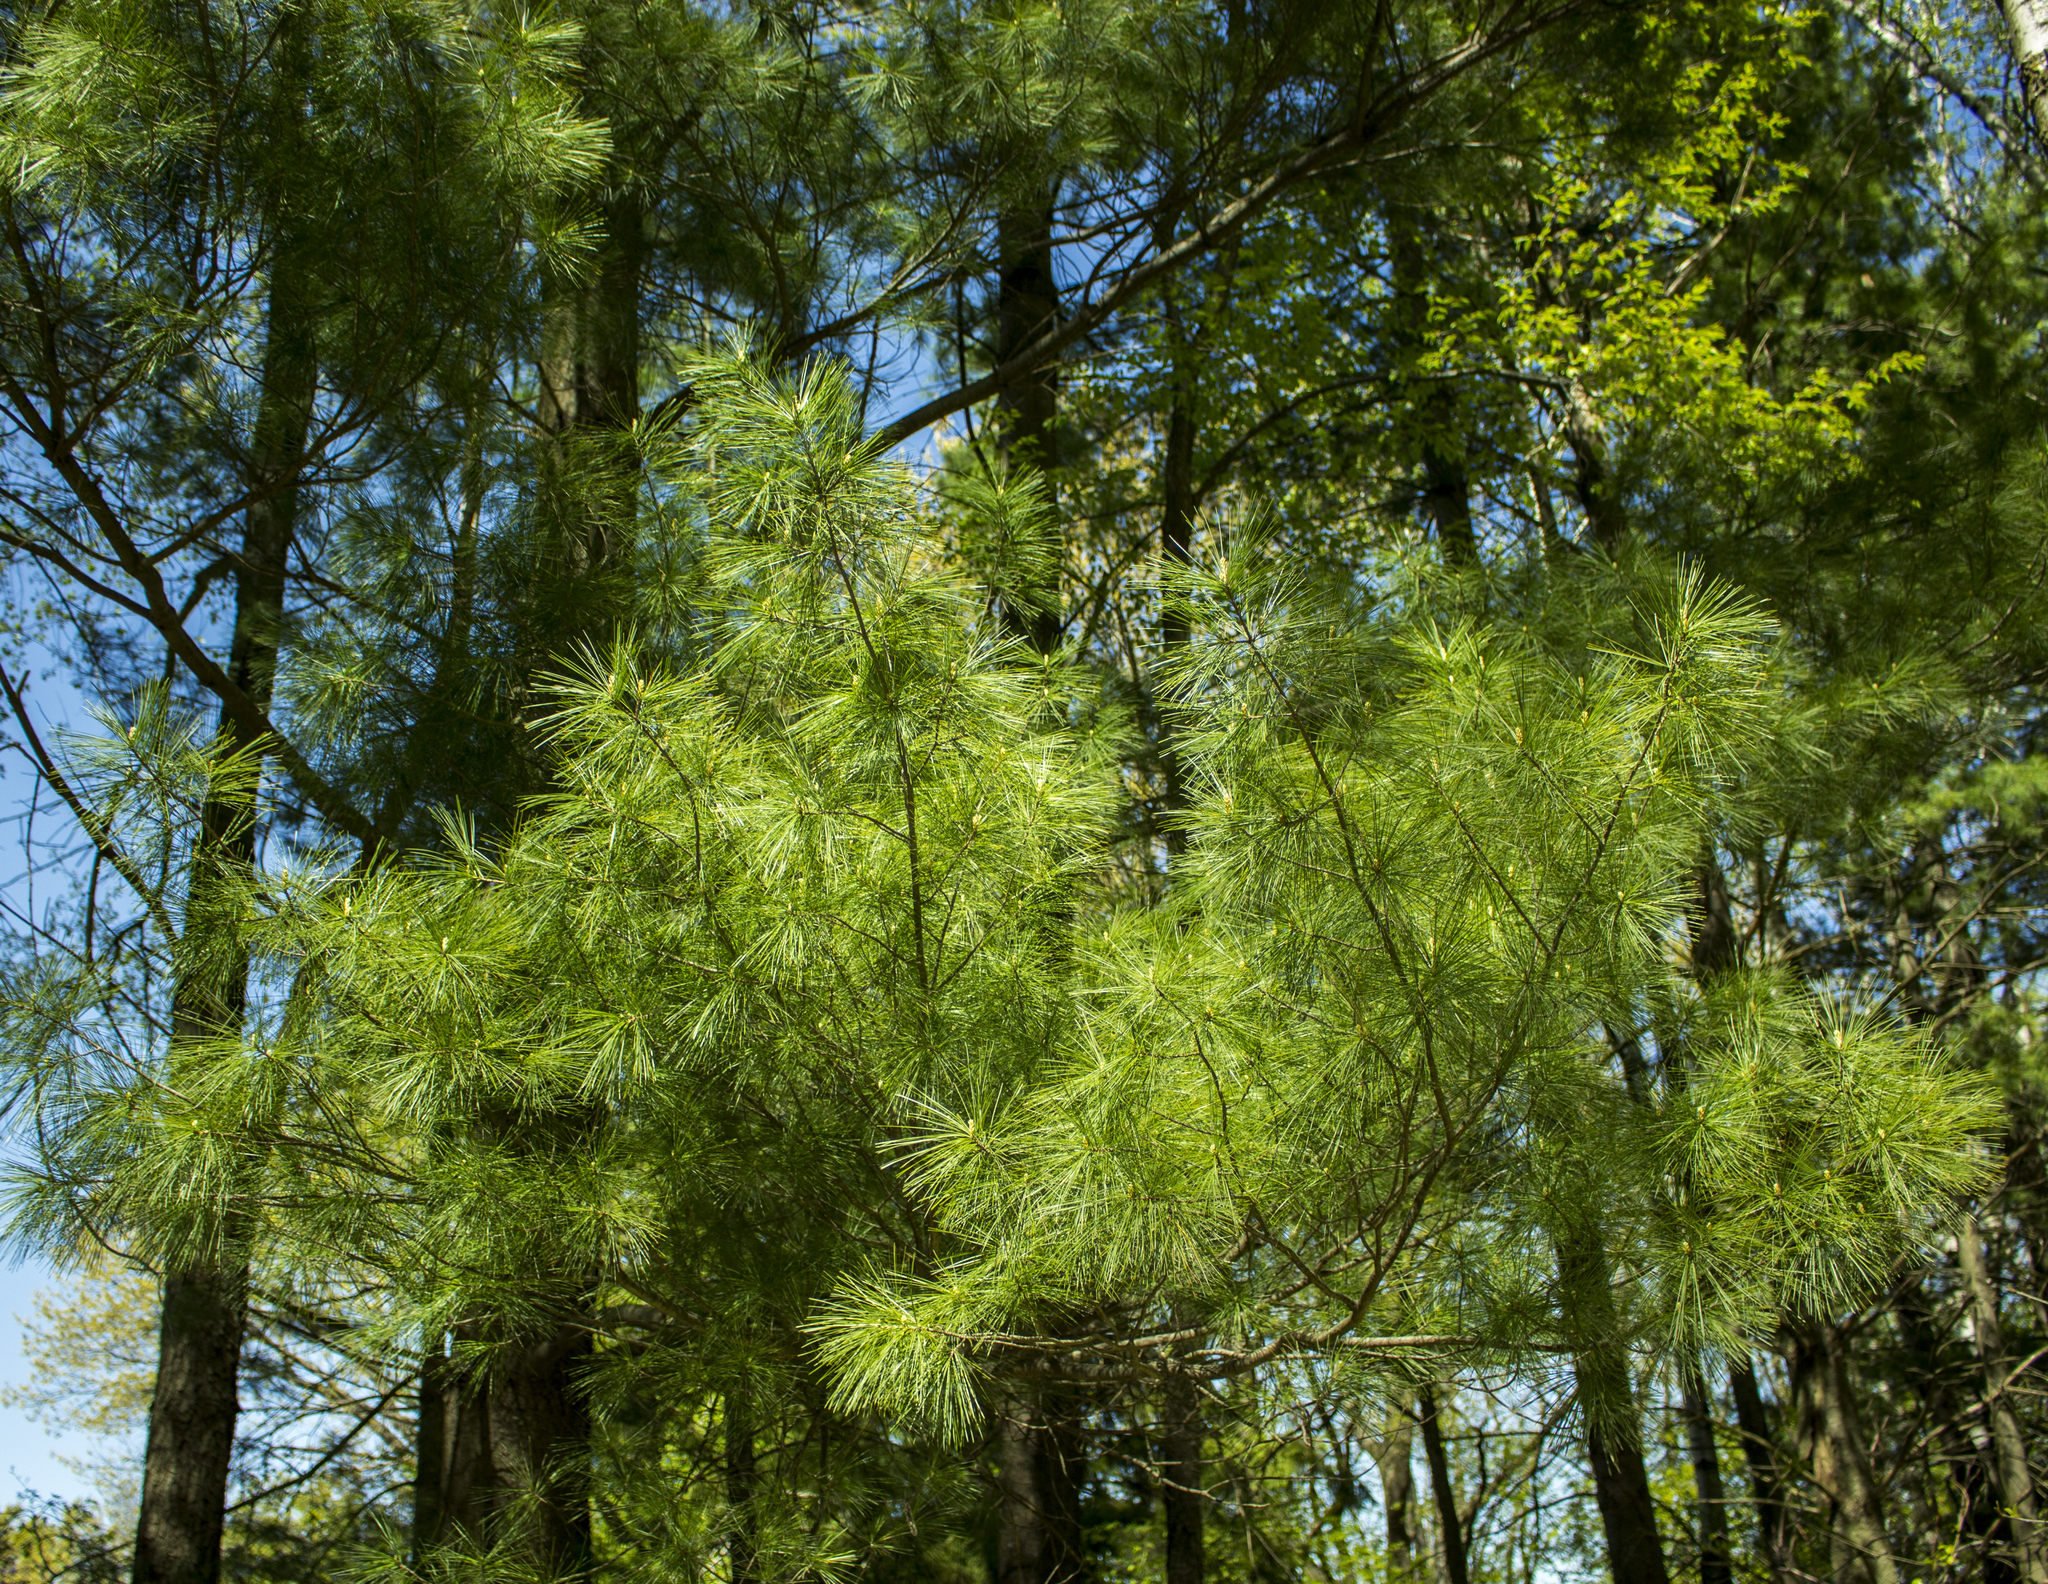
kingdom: Plantae
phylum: Tracheophyta
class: Pinopsida
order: Pinales
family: Pinaceae
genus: Pinus
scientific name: Pinus strobus
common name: Weymouth pine
